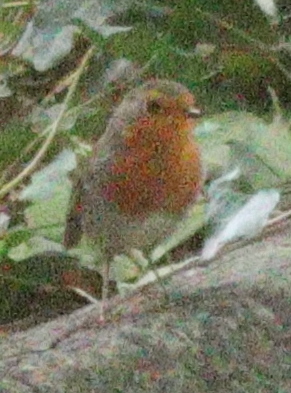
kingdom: Animalia
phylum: Chordata
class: Aves
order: Passeriformes
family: Muscicapidae
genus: Erithacus
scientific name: Erithacus rubecula
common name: European robin
